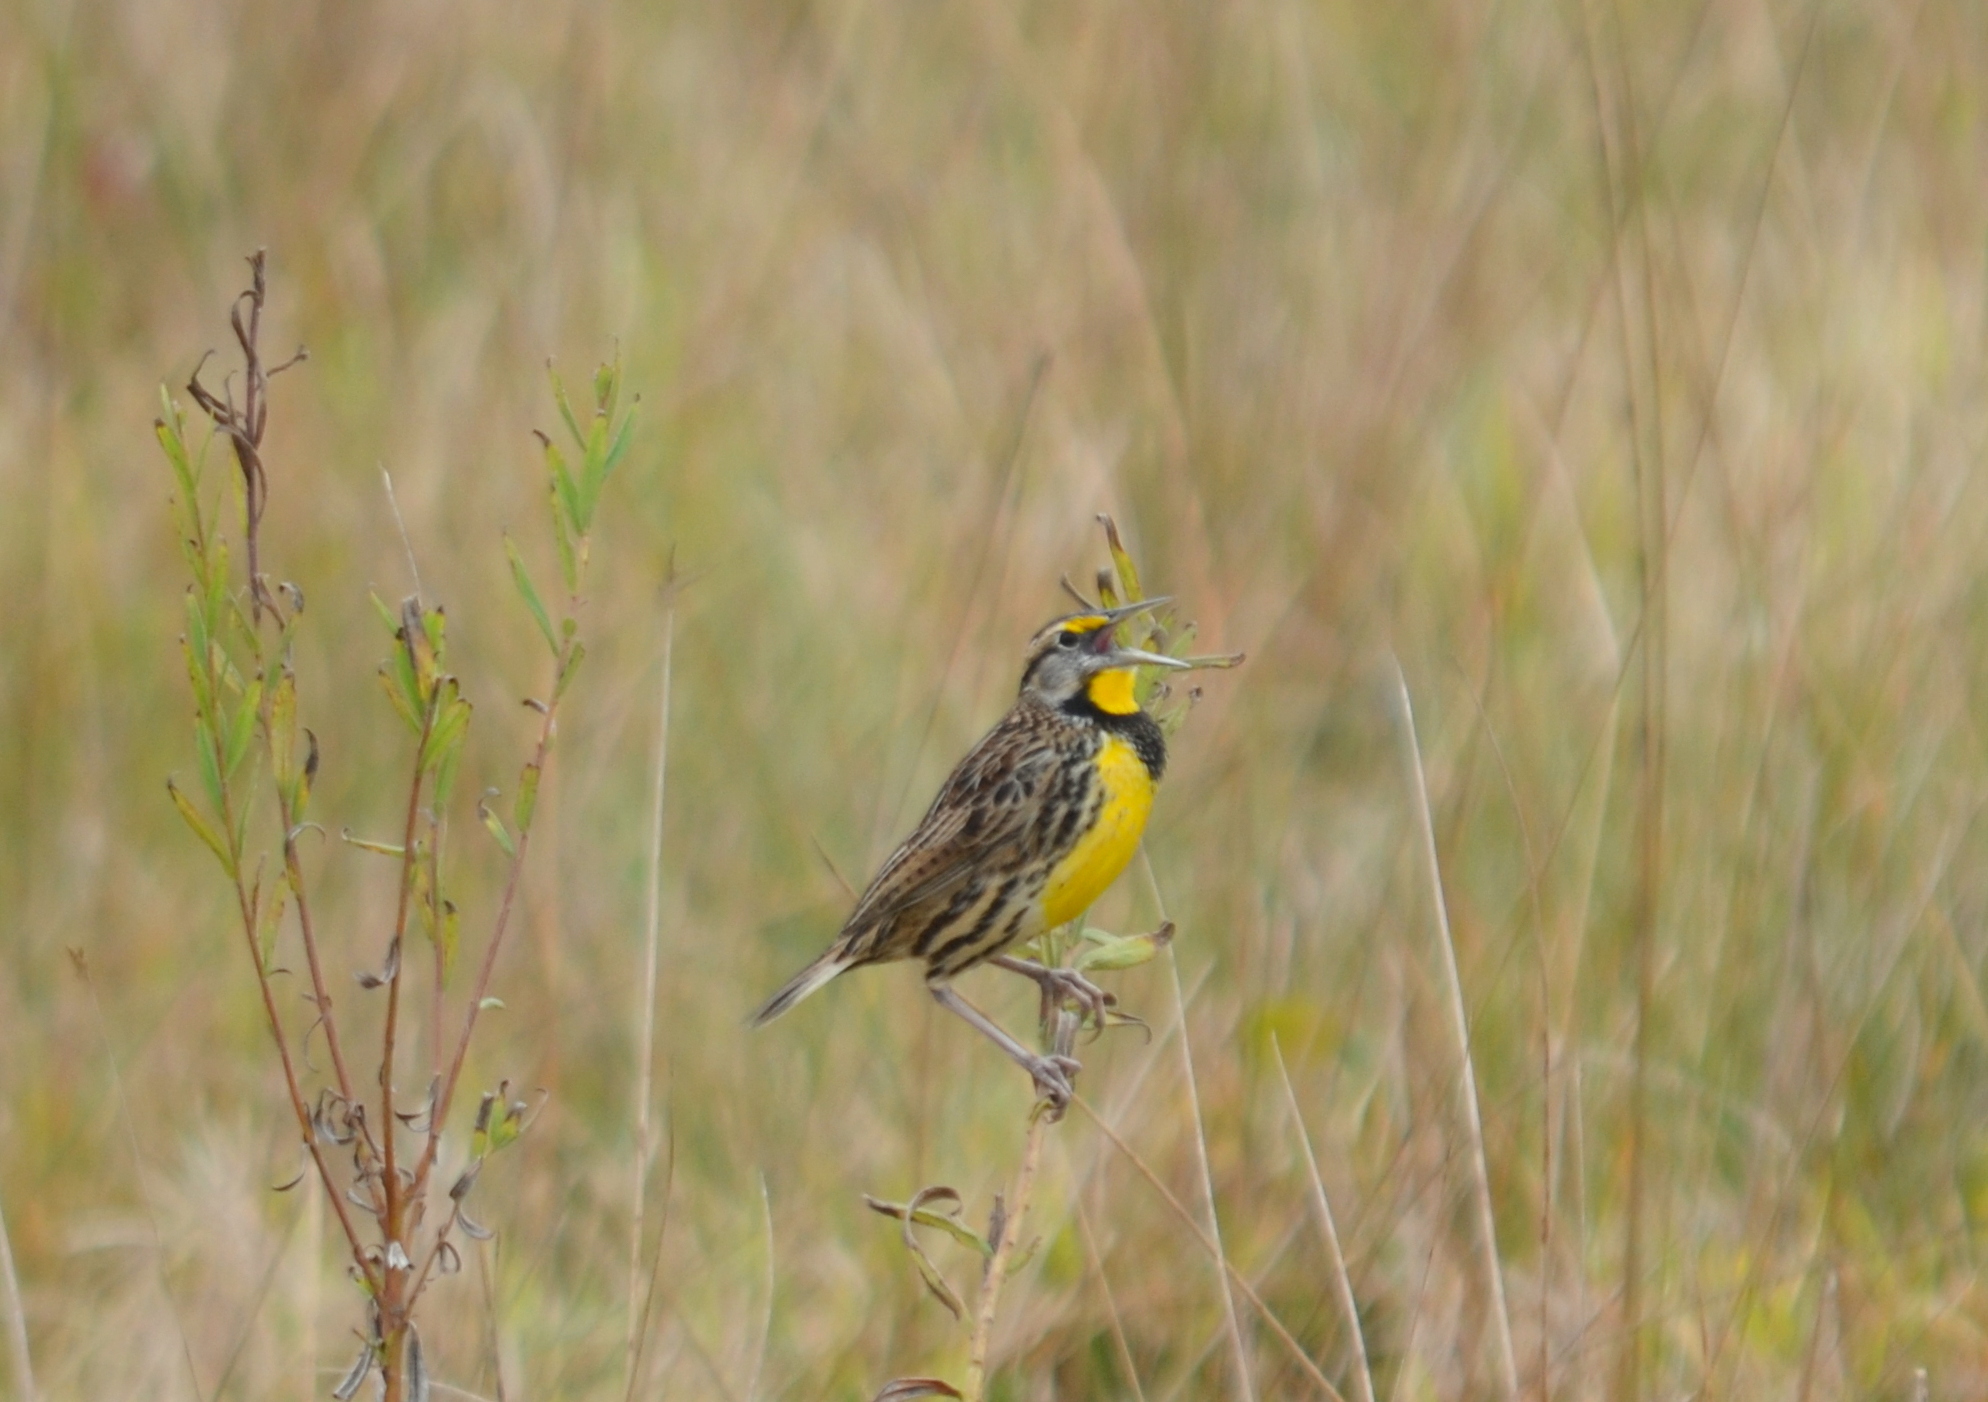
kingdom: Animalia
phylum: Chordata
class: Aves
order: Passeriformes
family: Icteridae
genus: Sturnella
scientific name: Sturnella magna
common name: Eastern meadowlark
